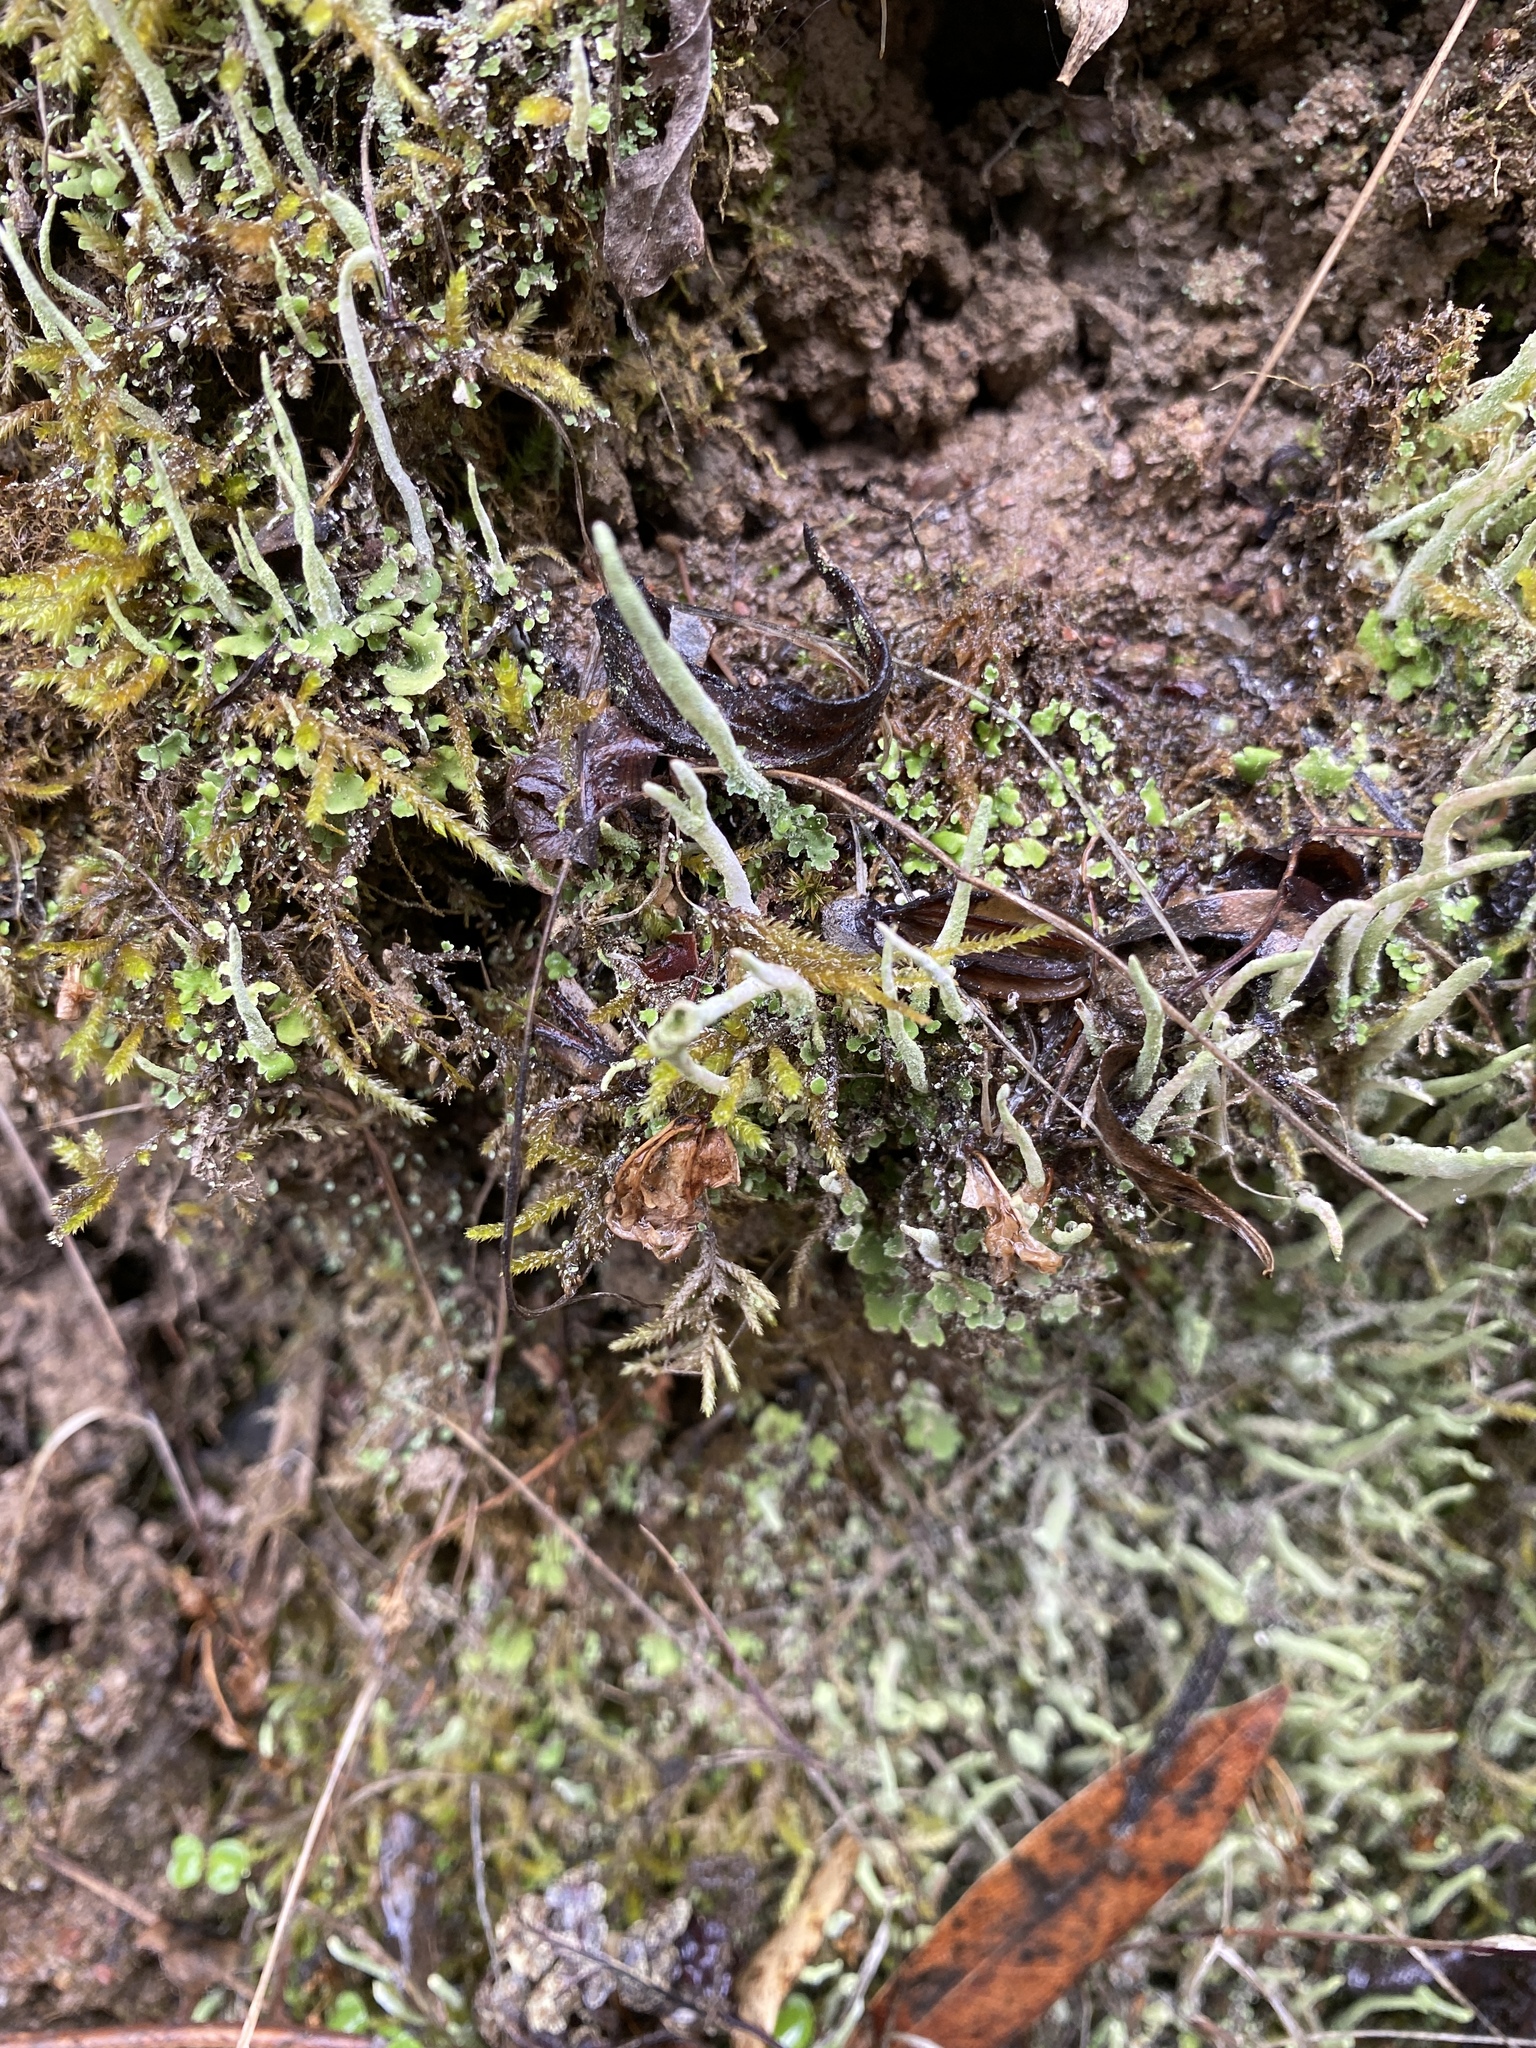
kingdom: Fungi
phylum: Ascomycota
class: Lecanoromycetes
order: Lecanorales
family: Cladoniaceae
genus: Cladonia
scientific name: Cladonia coniocraea
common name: Common powderhorn
